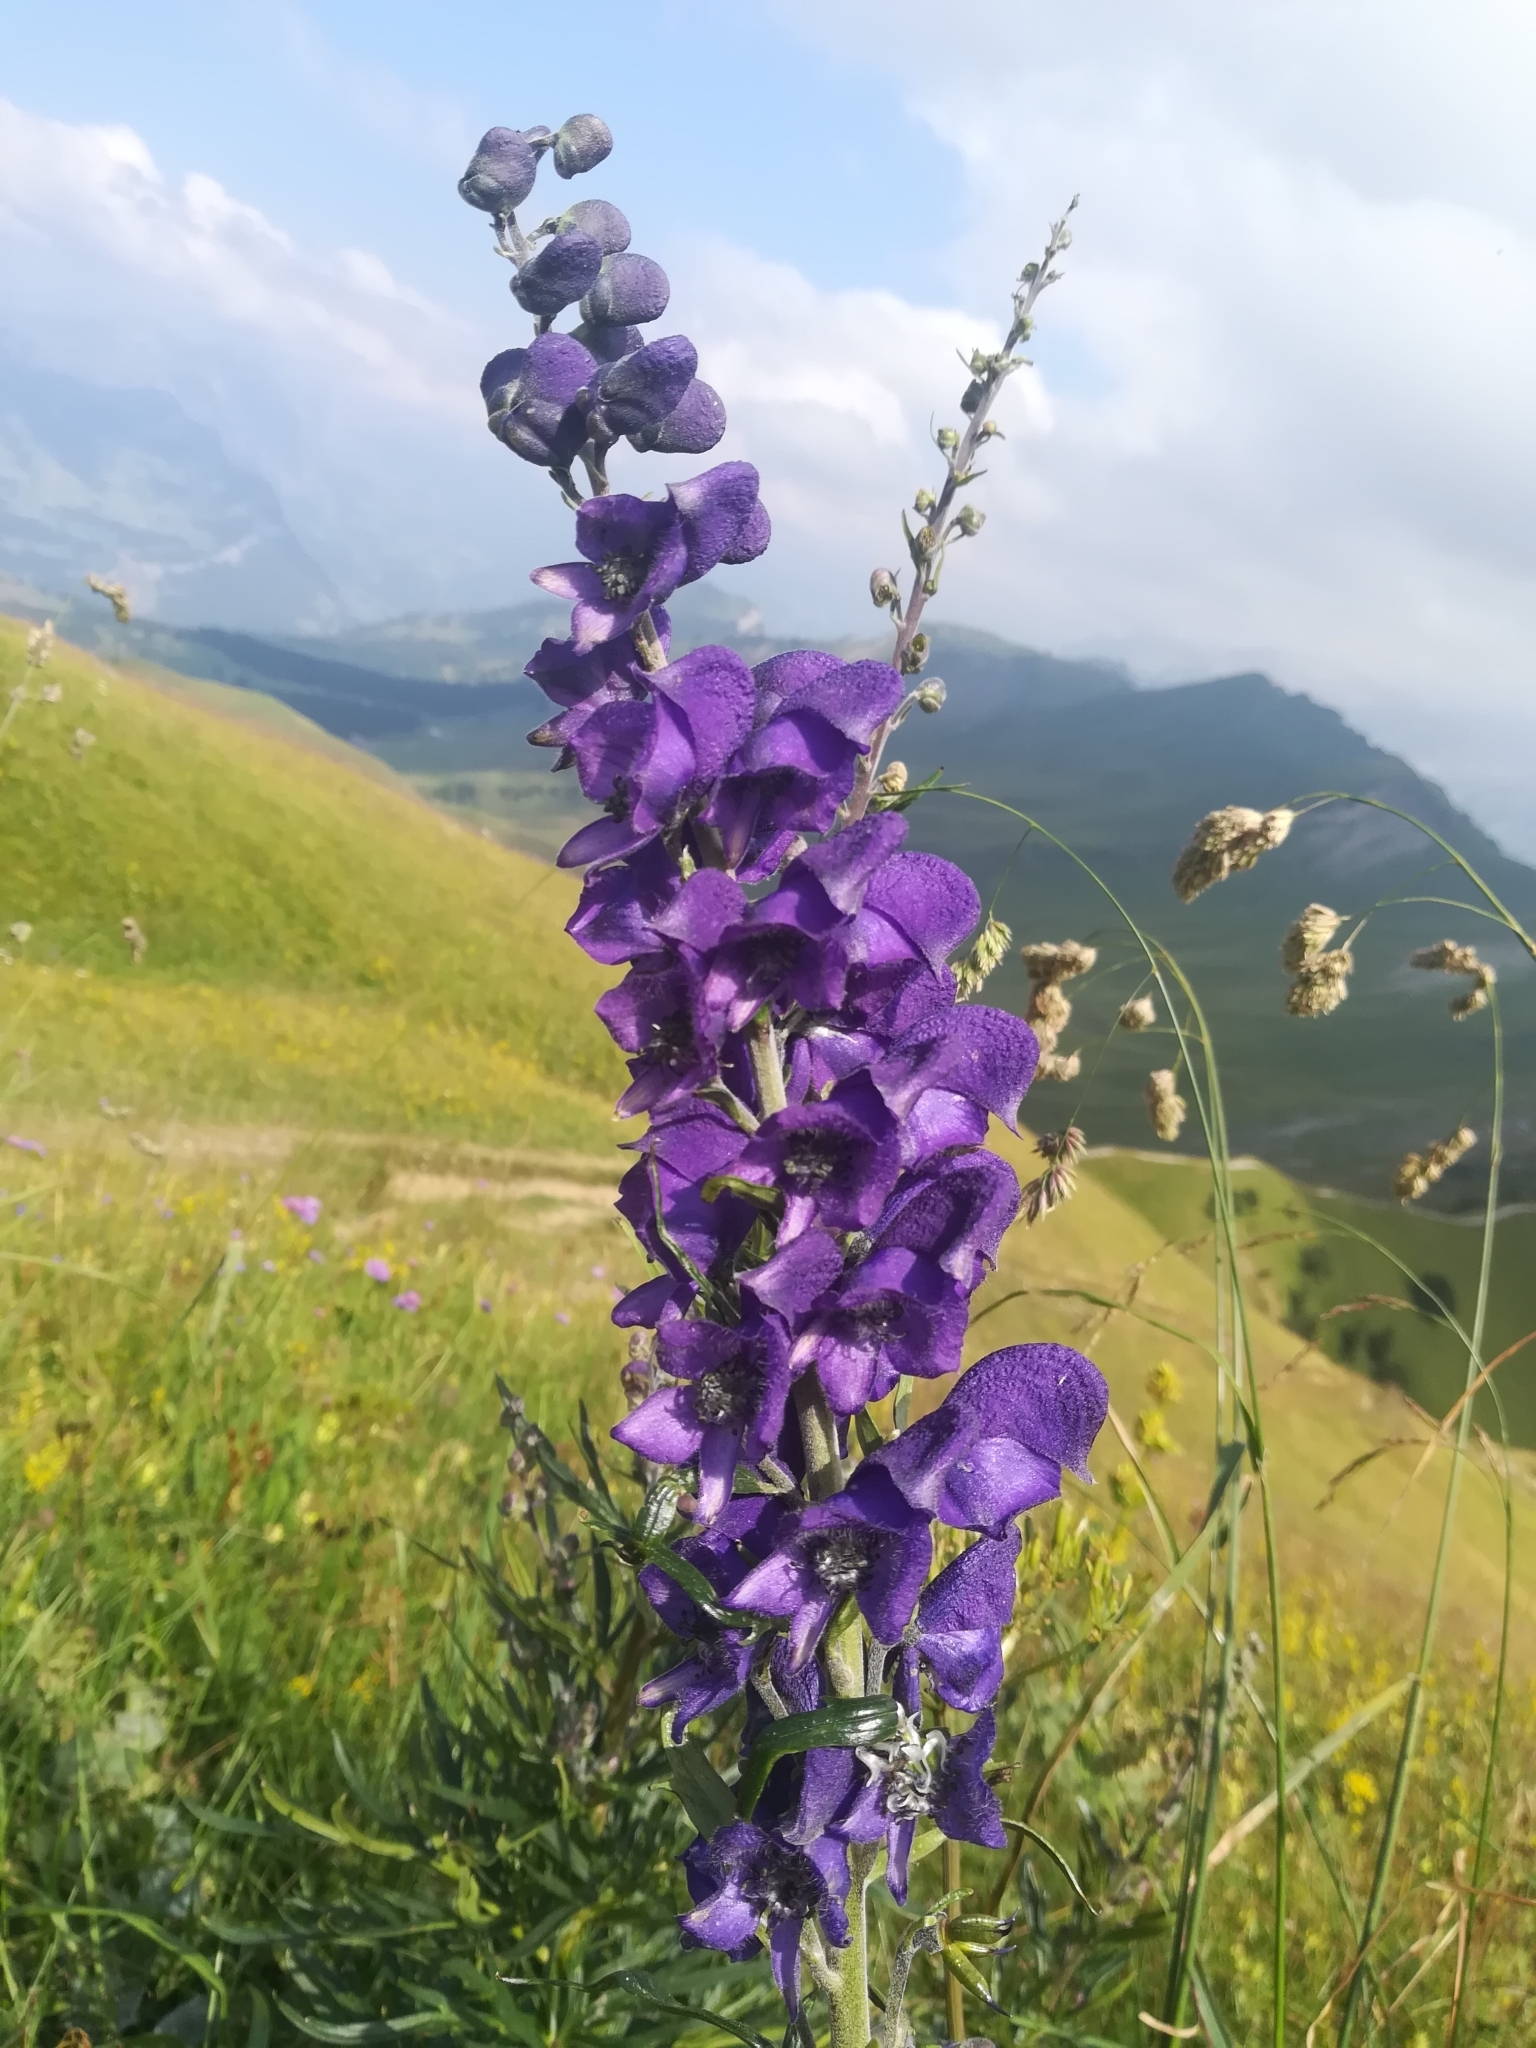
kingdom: Plantae
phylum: Tracheophyta
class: Magnoliopsida
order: Ranunculales
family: Ranunculaceae
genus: Aconitum
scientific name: Aconitum napellus
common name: Garden monkshood
